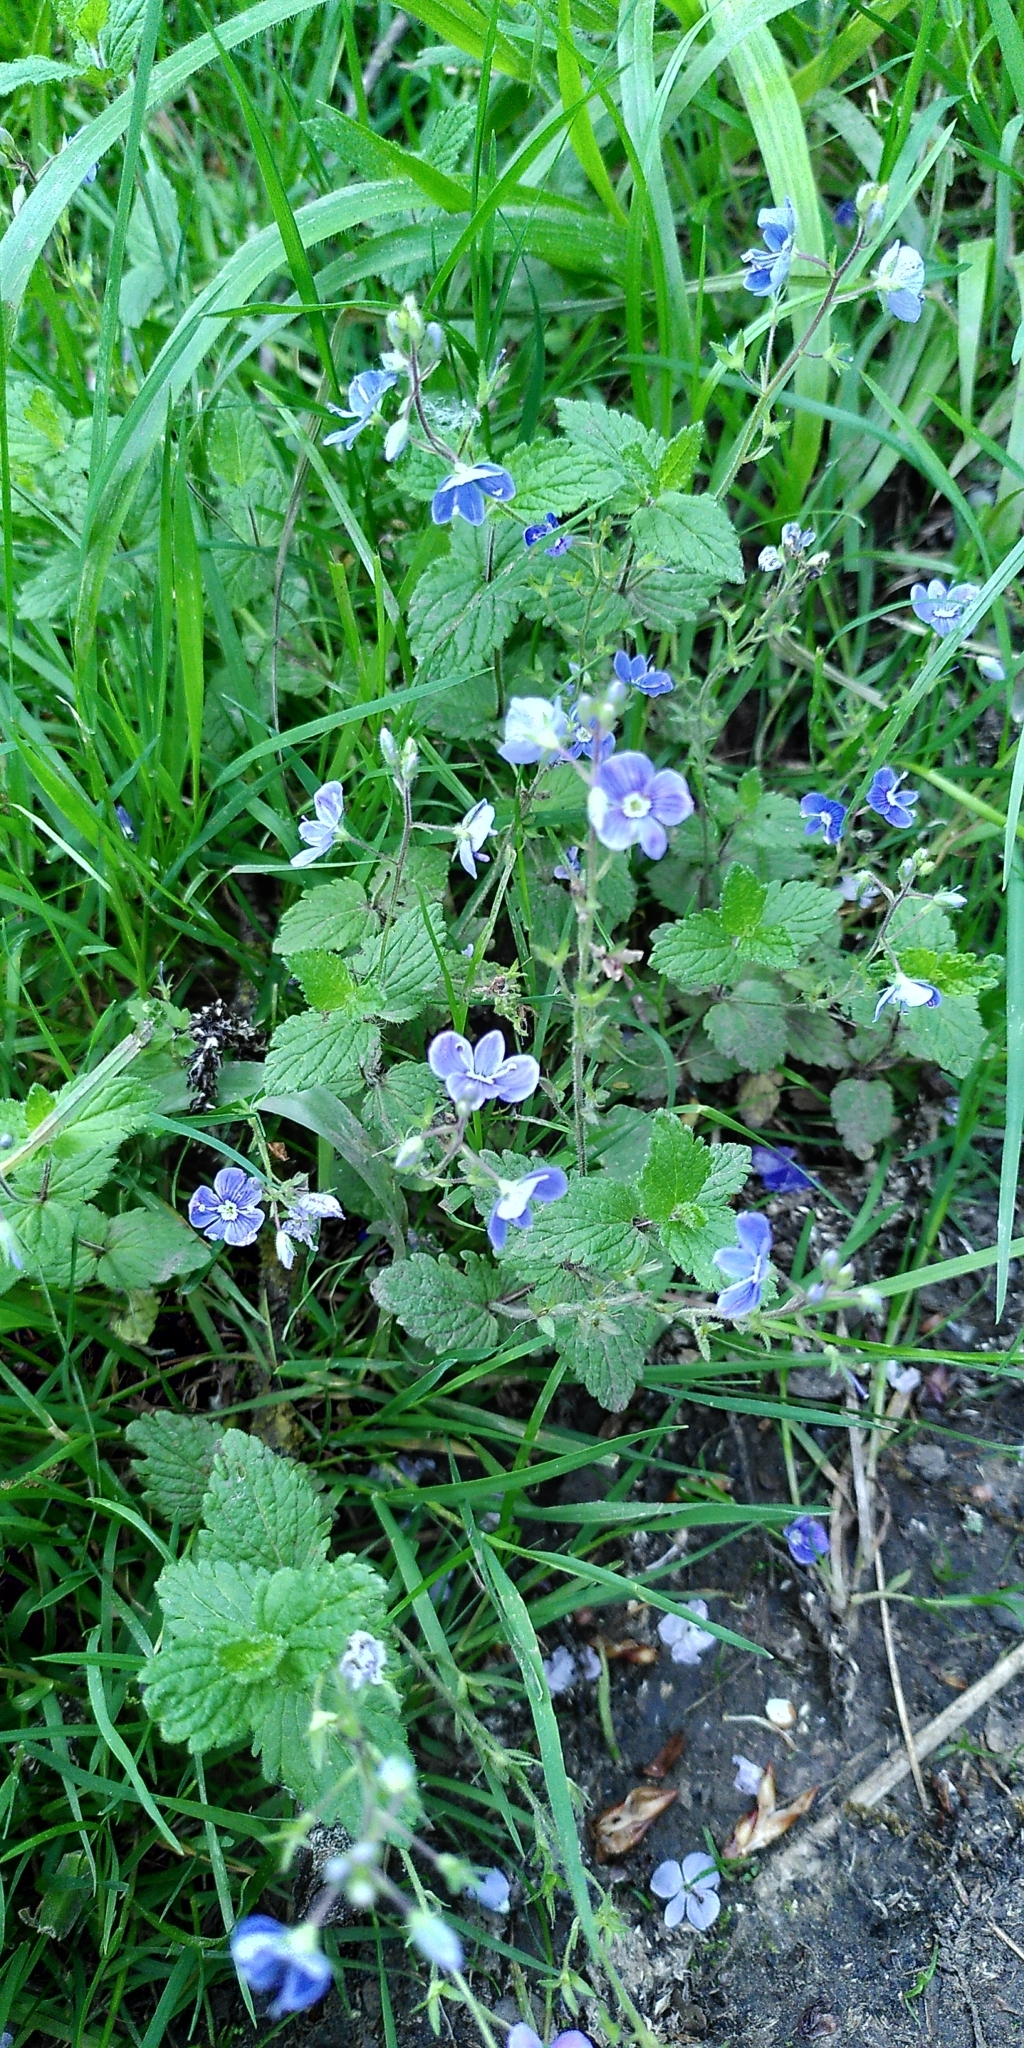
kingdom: Plantae
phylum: Tracheophyta
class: Magnoliopsida
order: Lamiales
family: Plantaginaceae
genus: Veronica
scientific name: Veronica chamaedrys
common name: Germander speedwell
